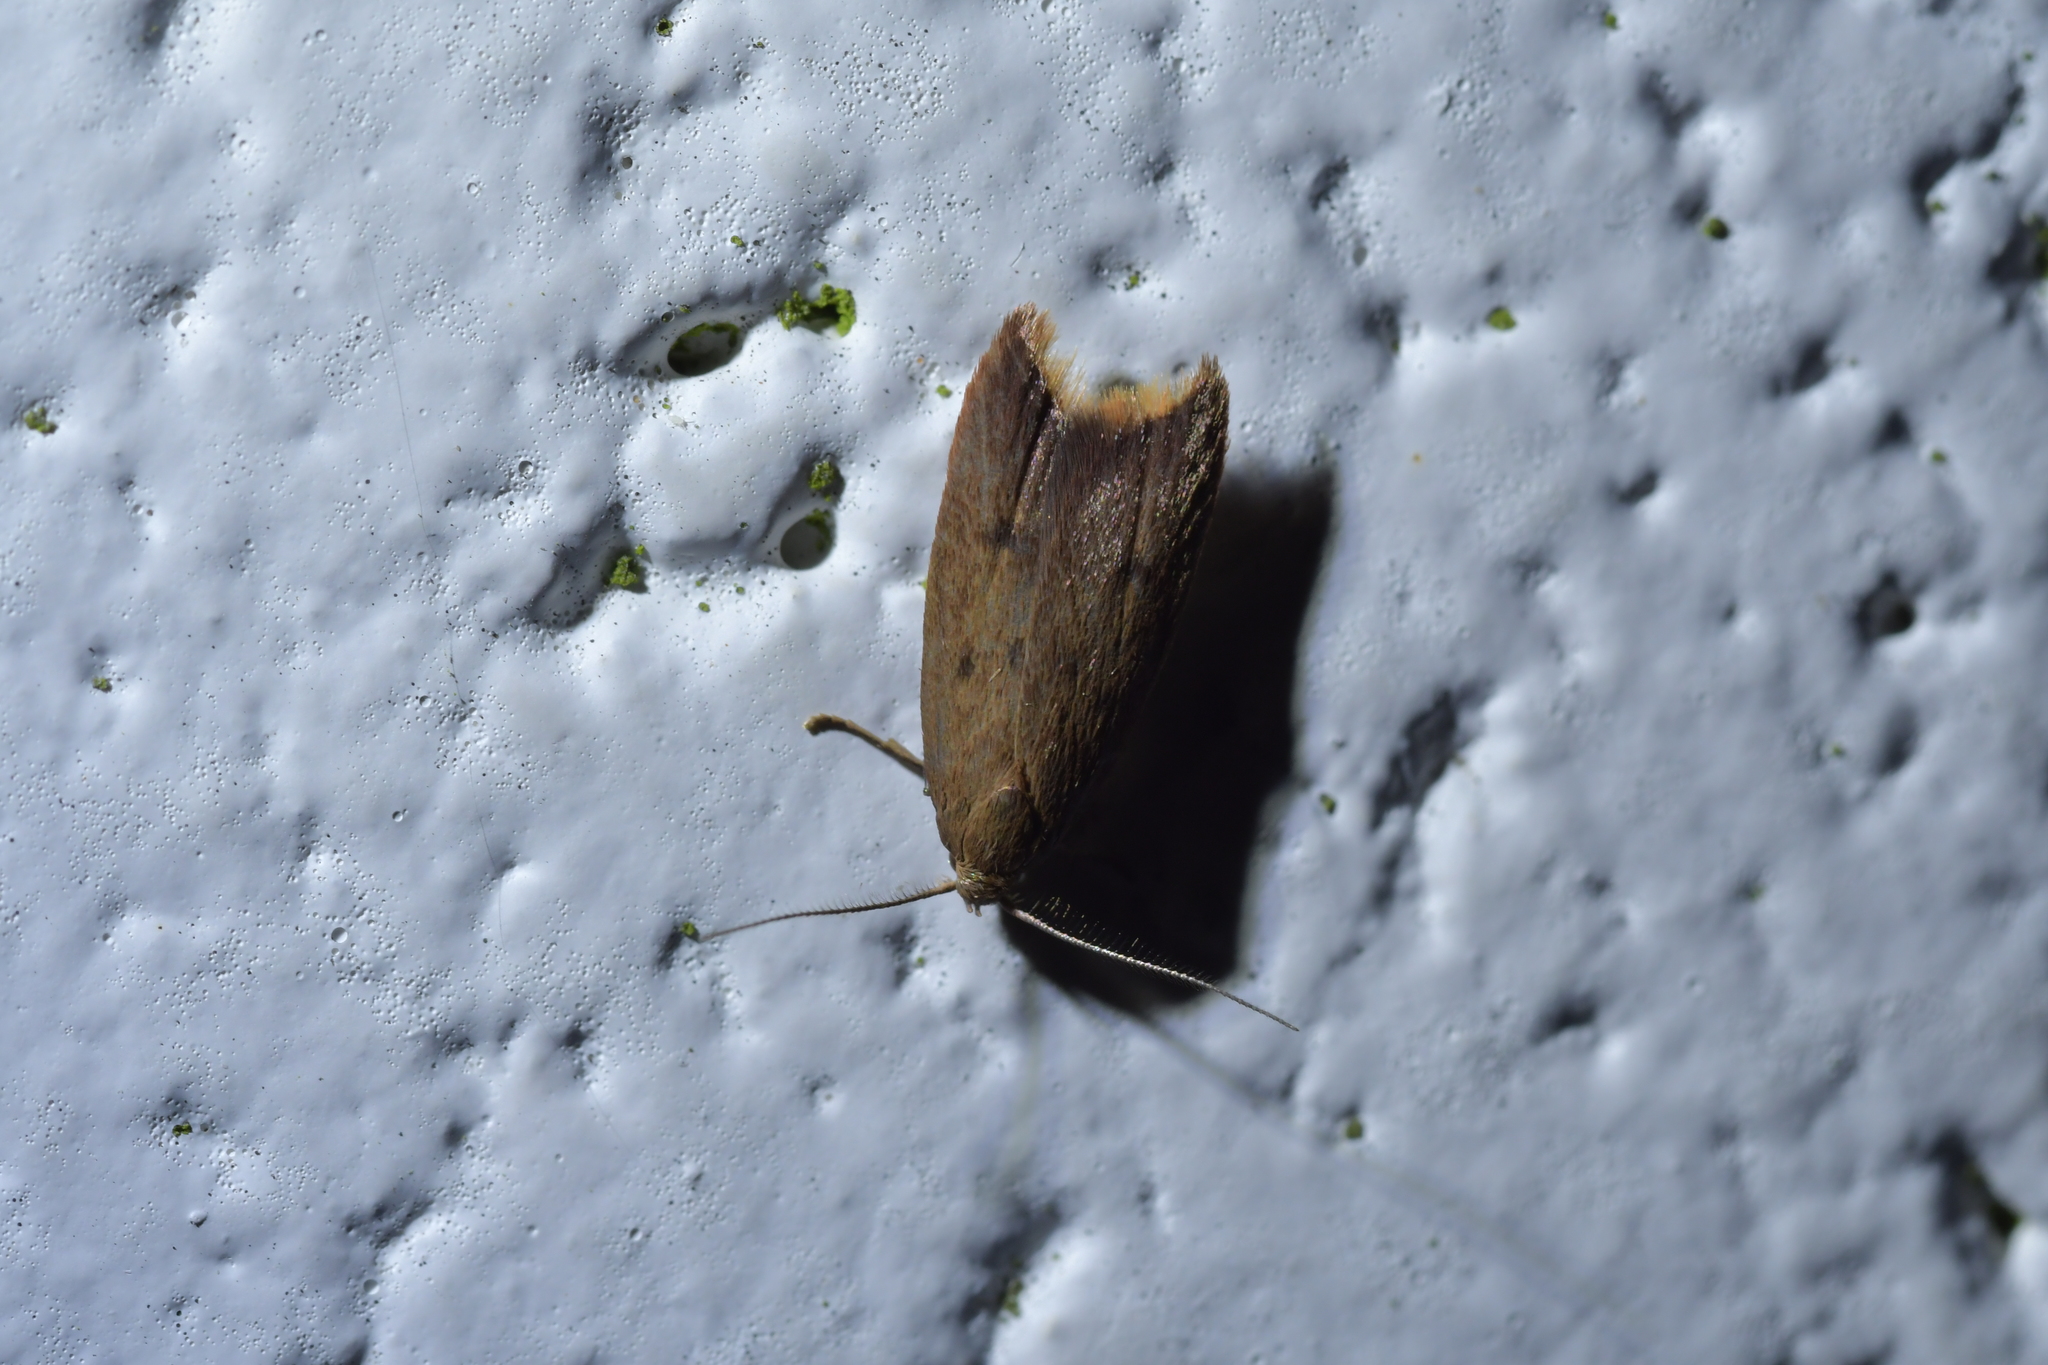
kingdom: Animalia
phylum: Arthropoda
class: Insecta
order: Lepidoptera
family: Oecophoridae
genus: Tachystola
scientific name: Tachystola acroxantha
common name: Ruddy streak
